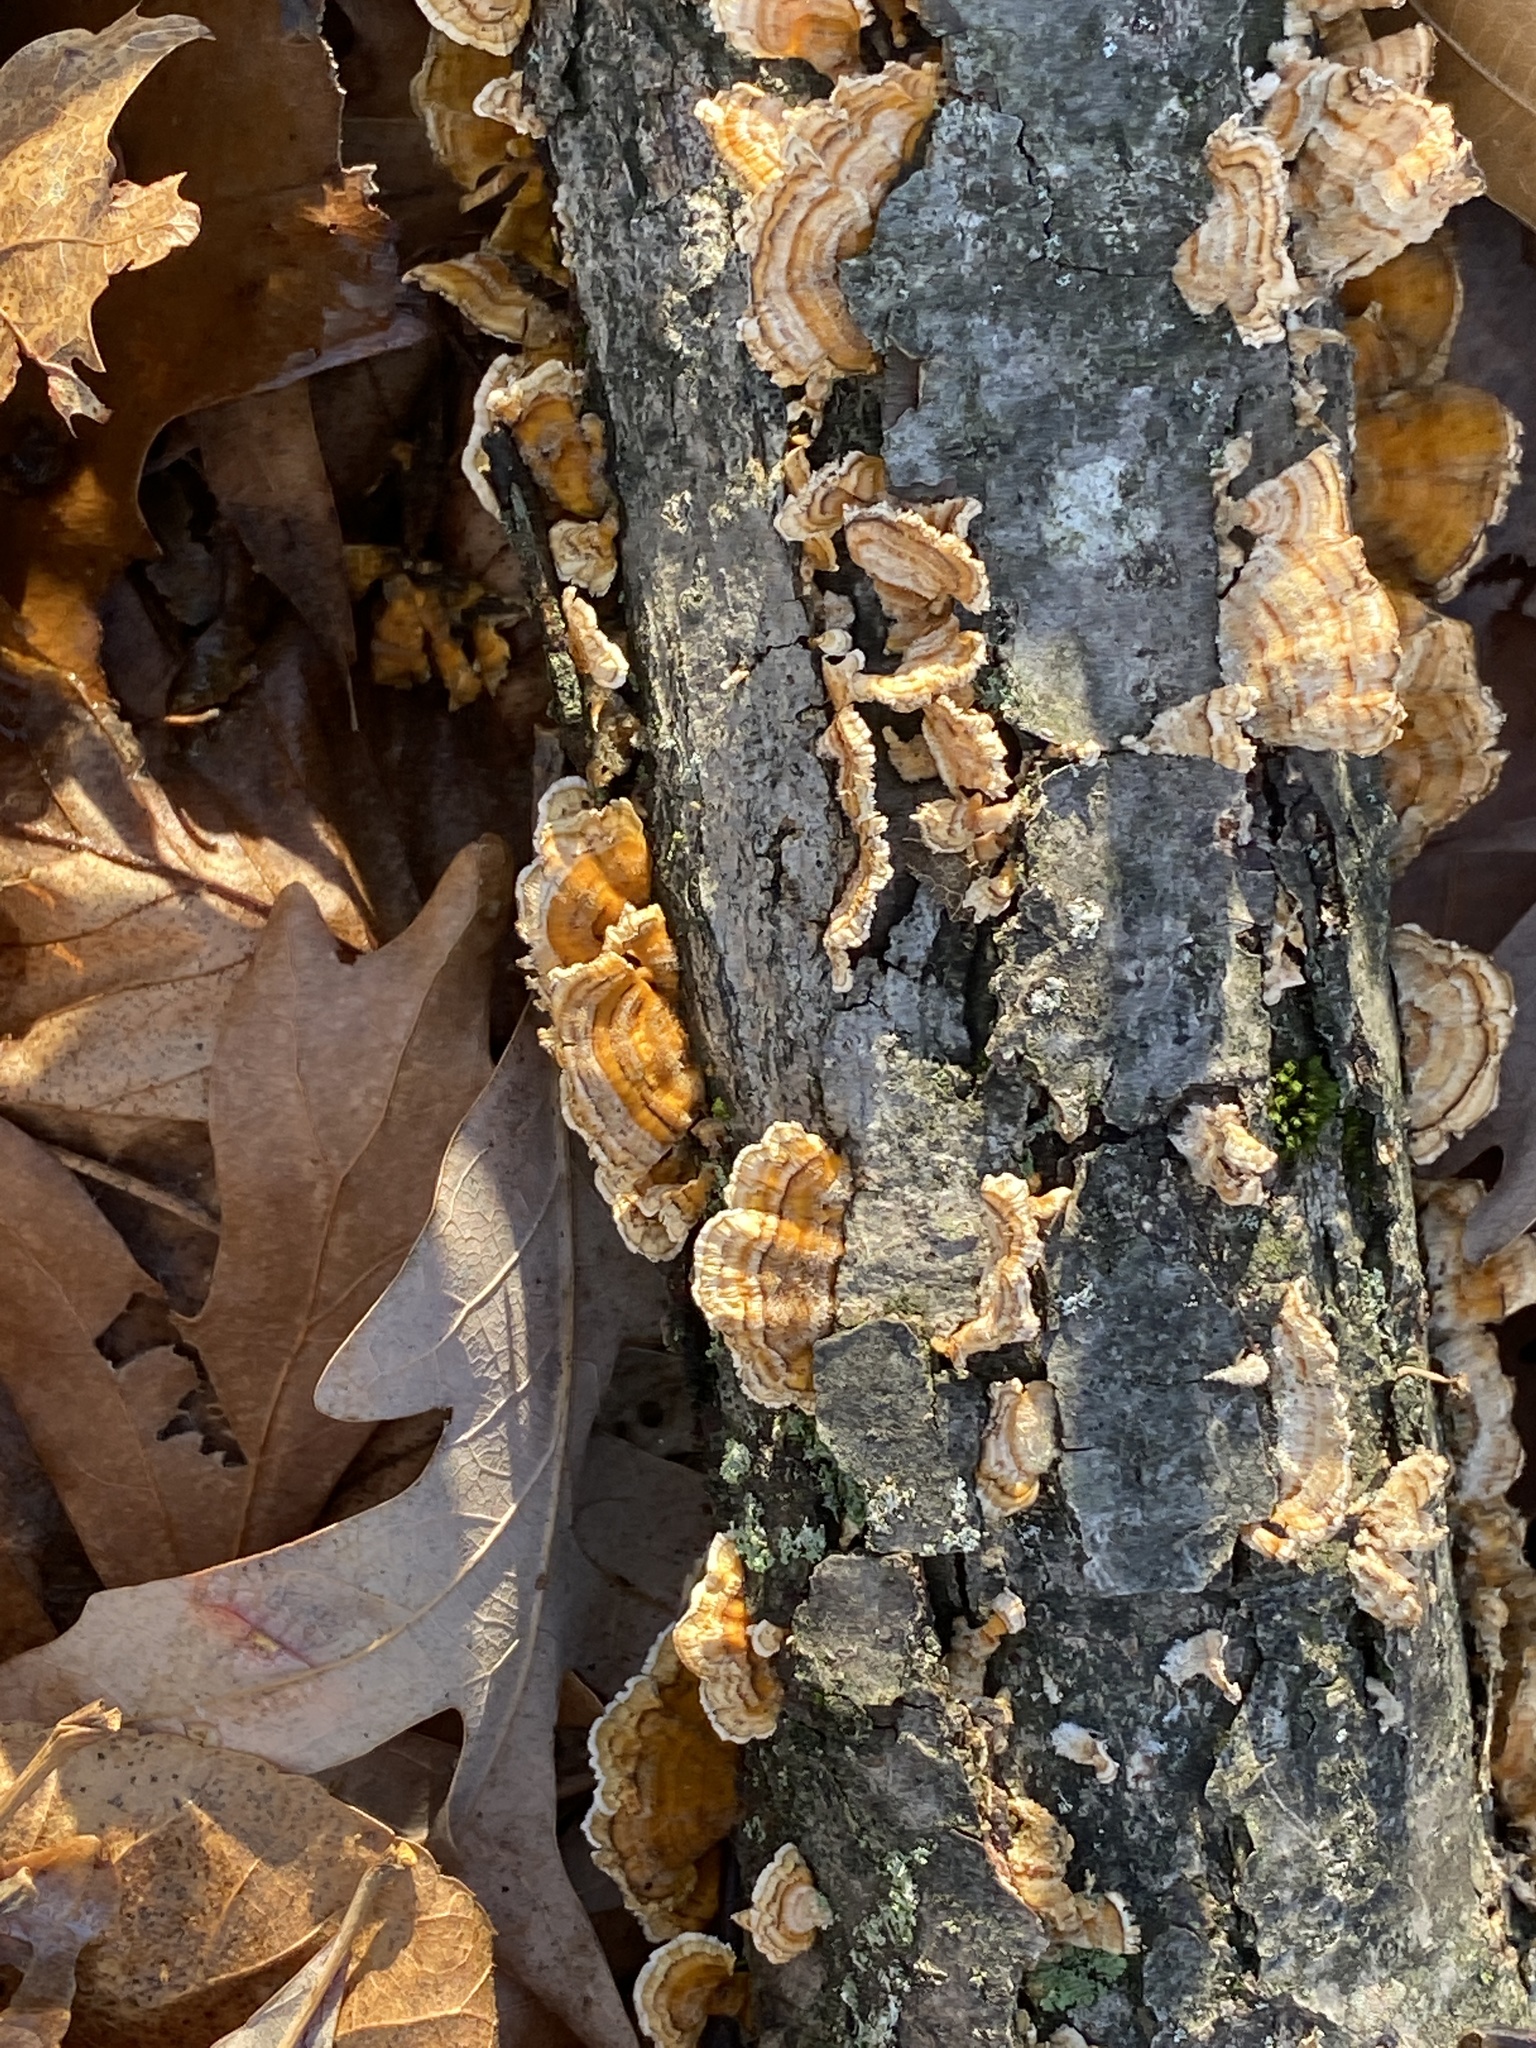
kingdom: Fungi
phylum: Basidiomycota
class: Agaricomycetes
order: Russulales
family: Stereaceae
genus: Stereum
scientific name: Stereum complicatum
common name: Crowded parchment
